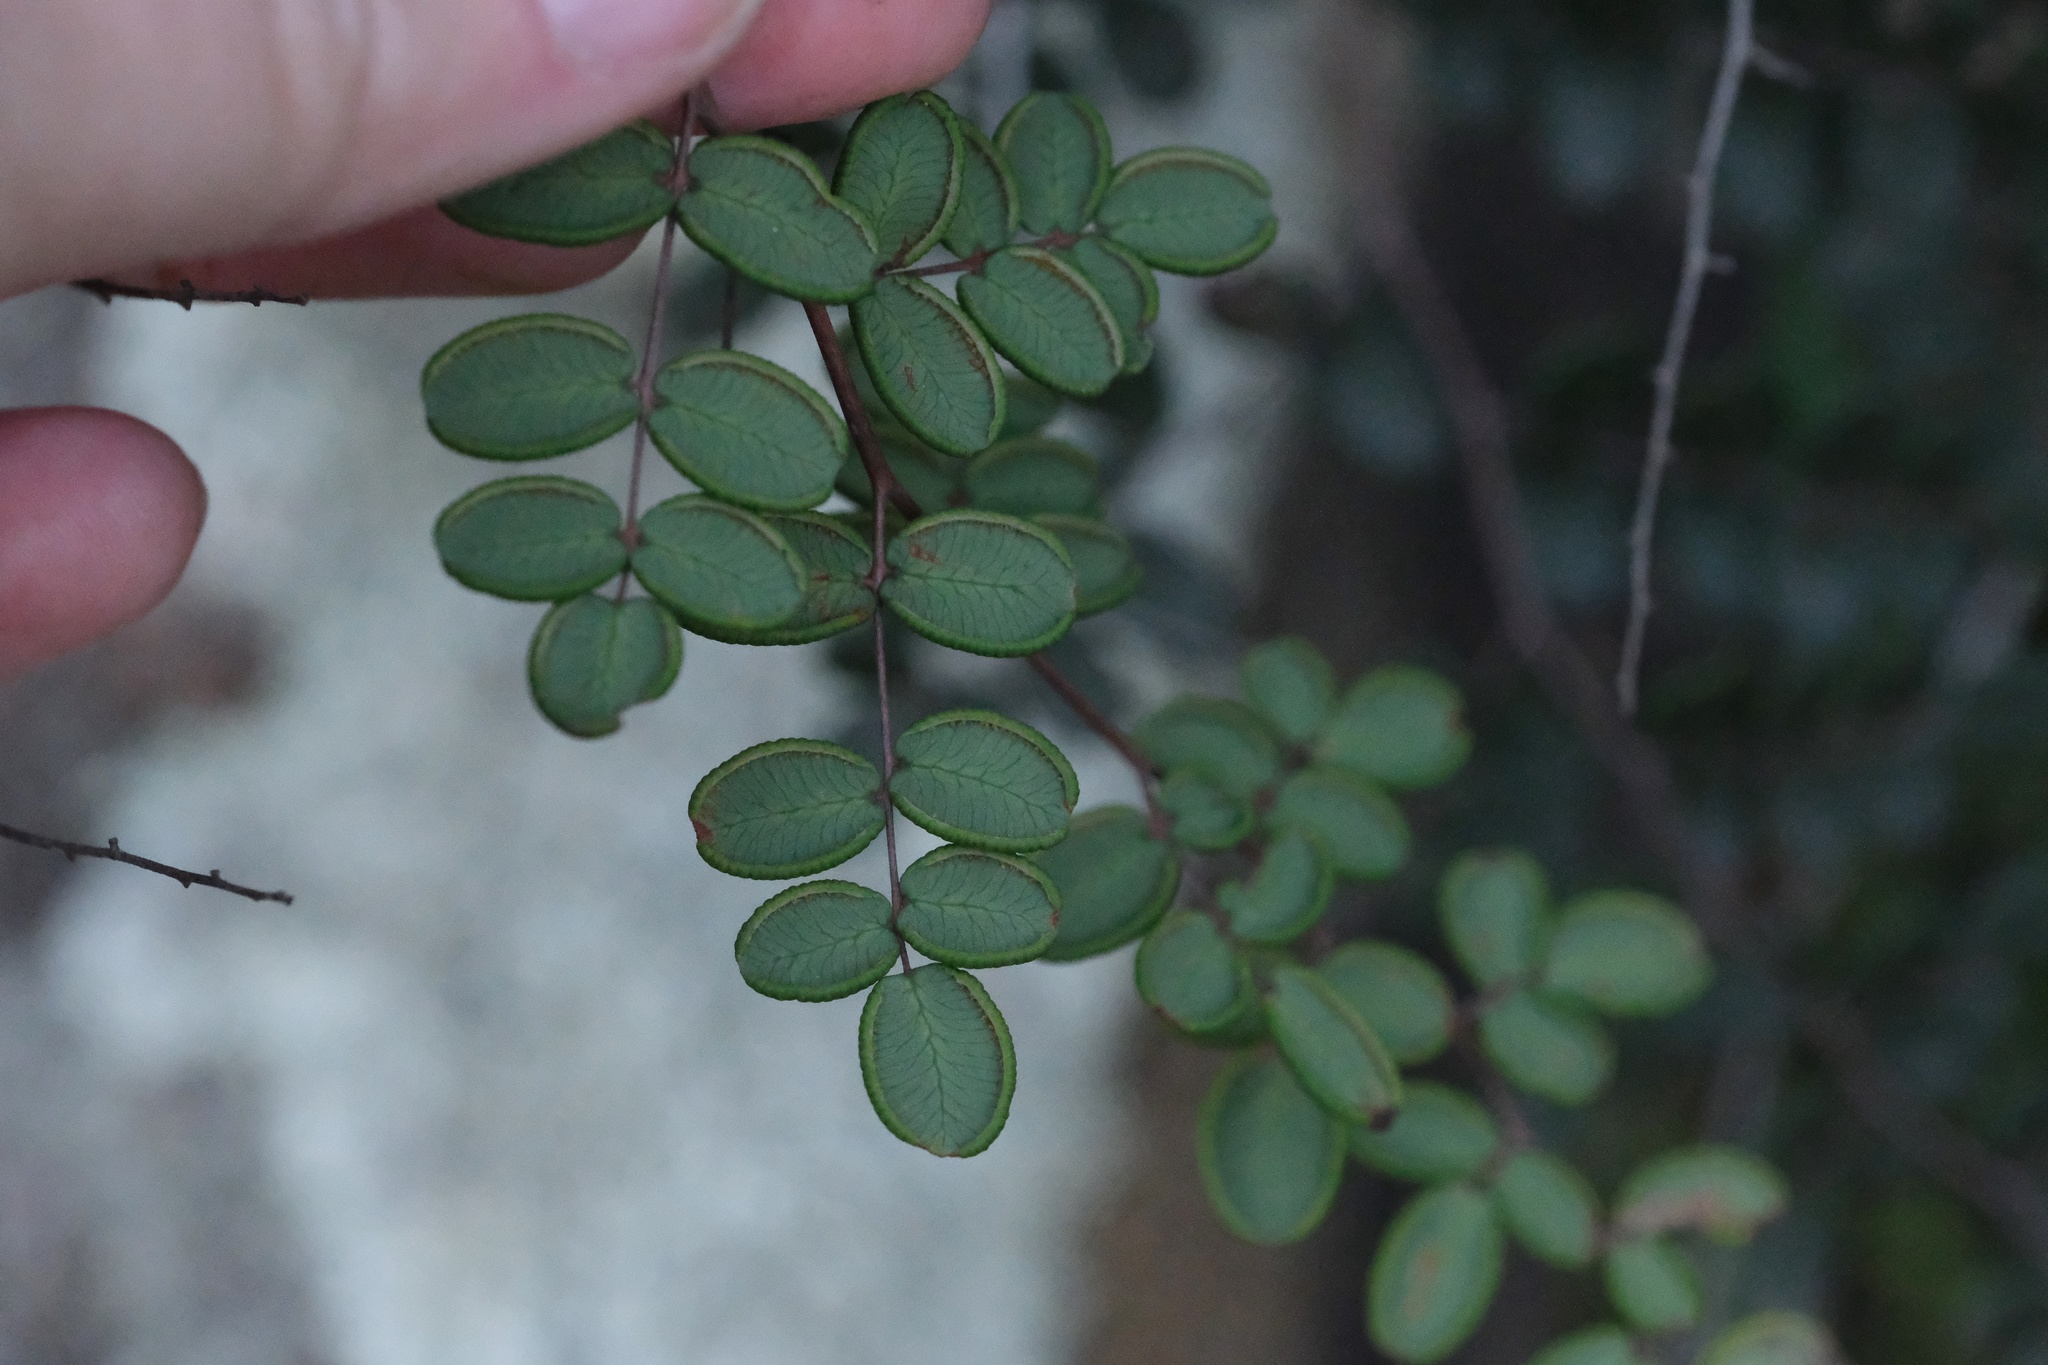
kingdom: Plantae
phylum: Tracheophyta
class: Polypodiopsida
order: Polypodiales
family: Pteridaceae
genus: Pellaea
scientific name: Pellaea andromedifolia
